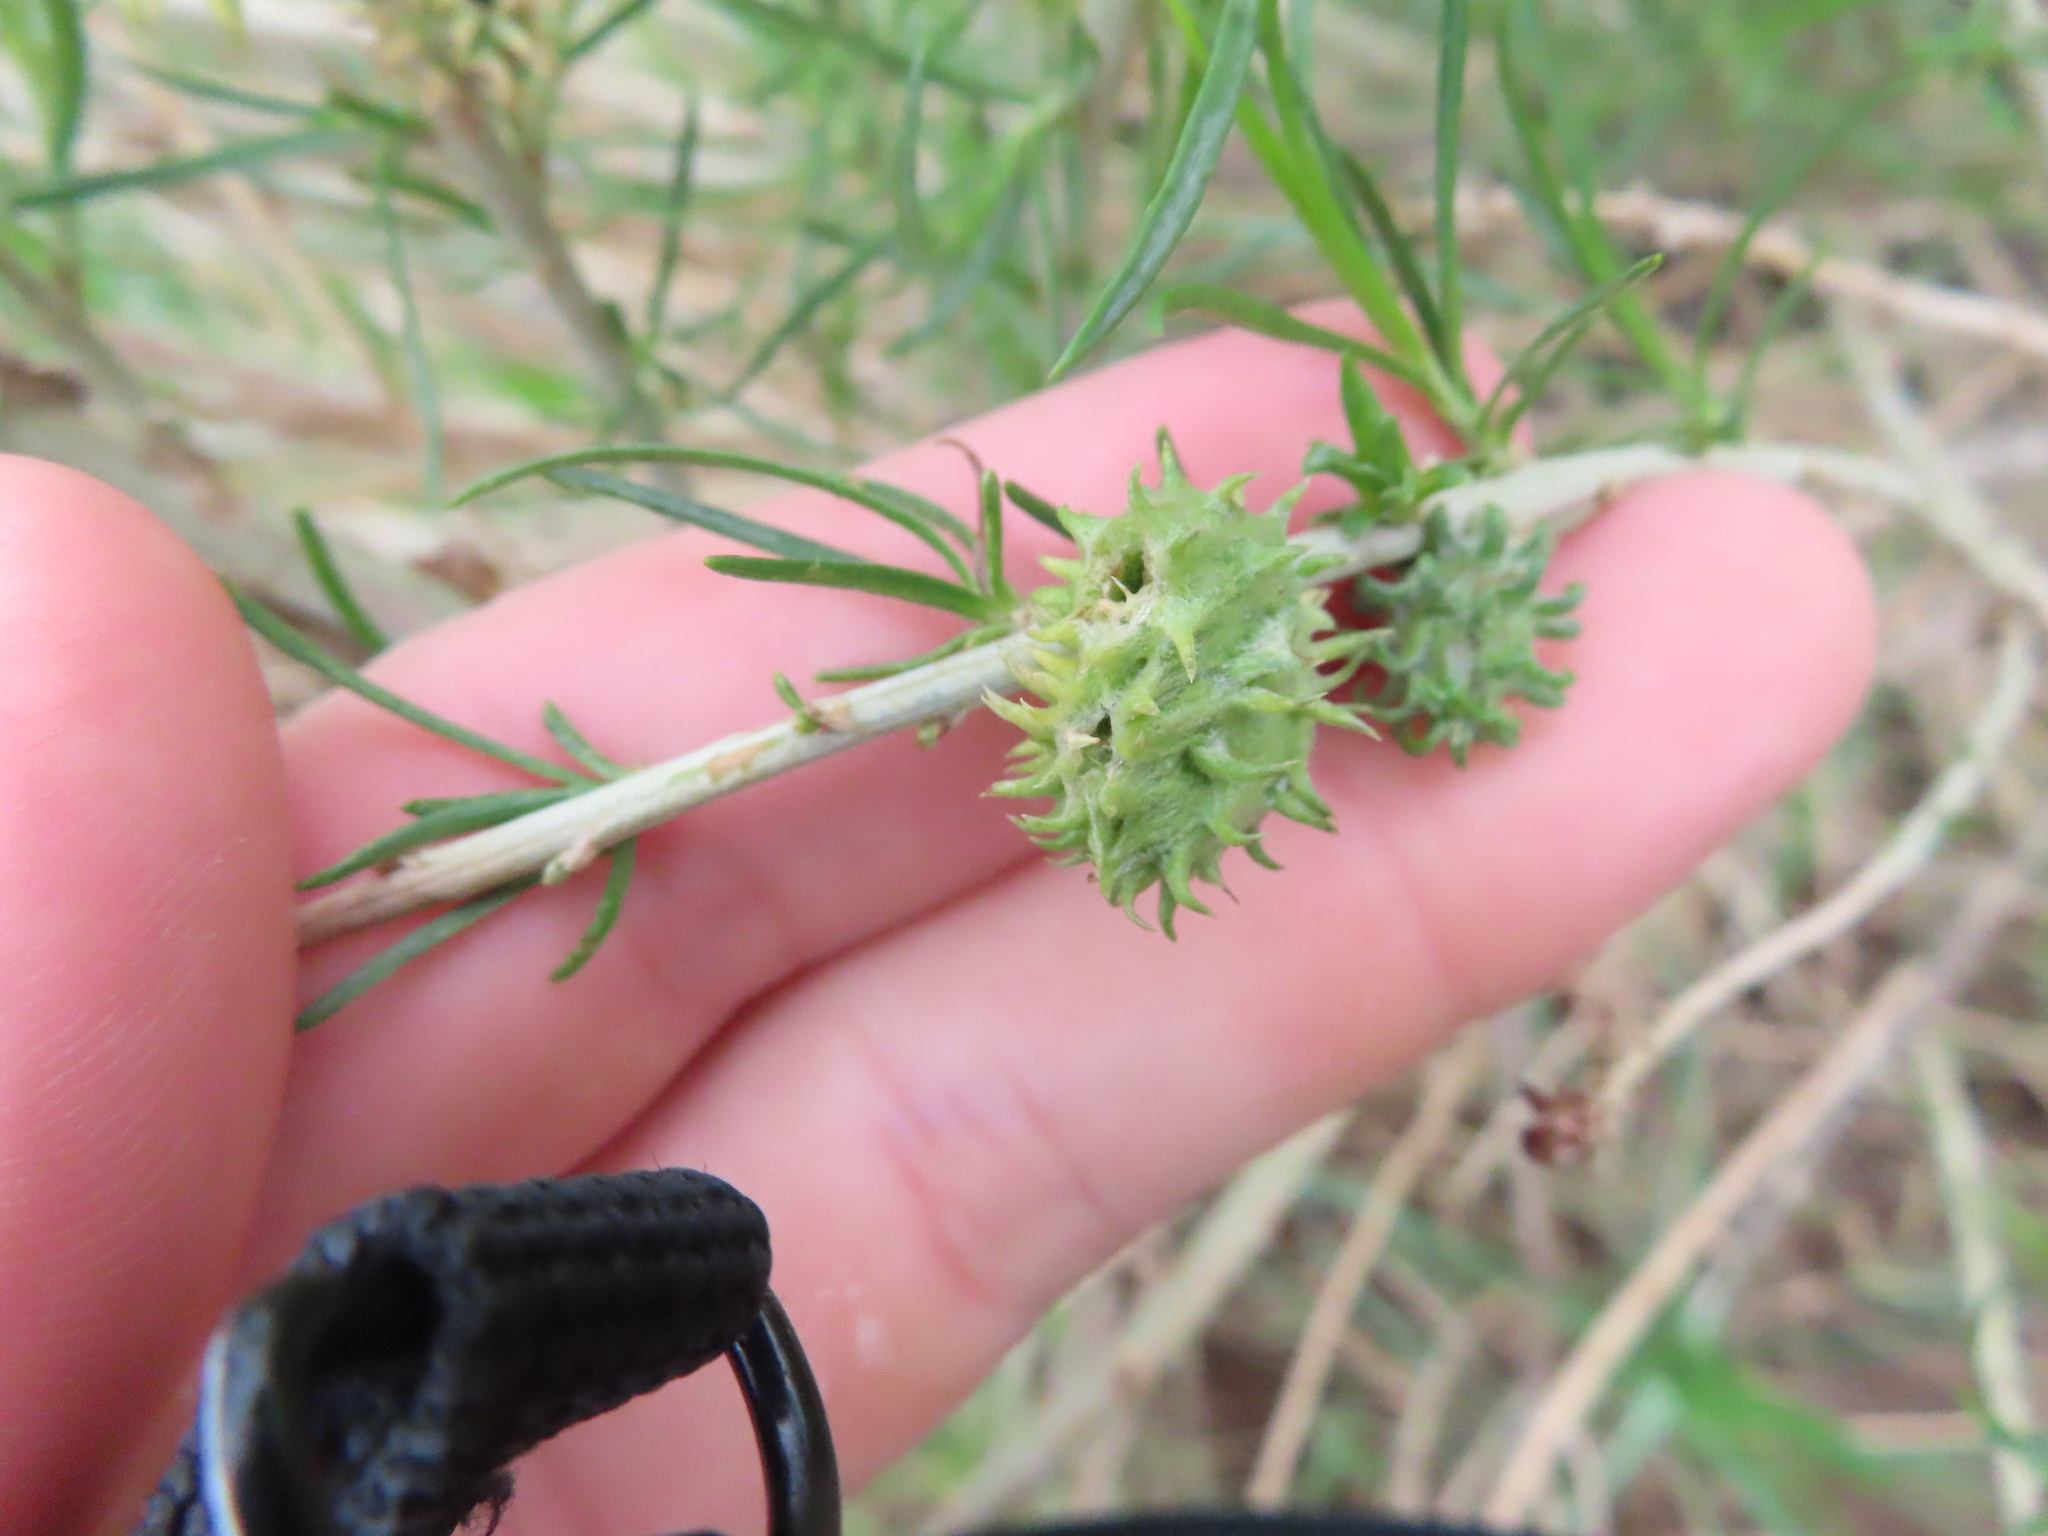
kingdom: Animalia
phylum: Arthropoda
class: Insecta
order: Diptera
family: Cecidomyiidae
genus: Rhopalomyia
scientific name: Rhopalomyia utahensis
